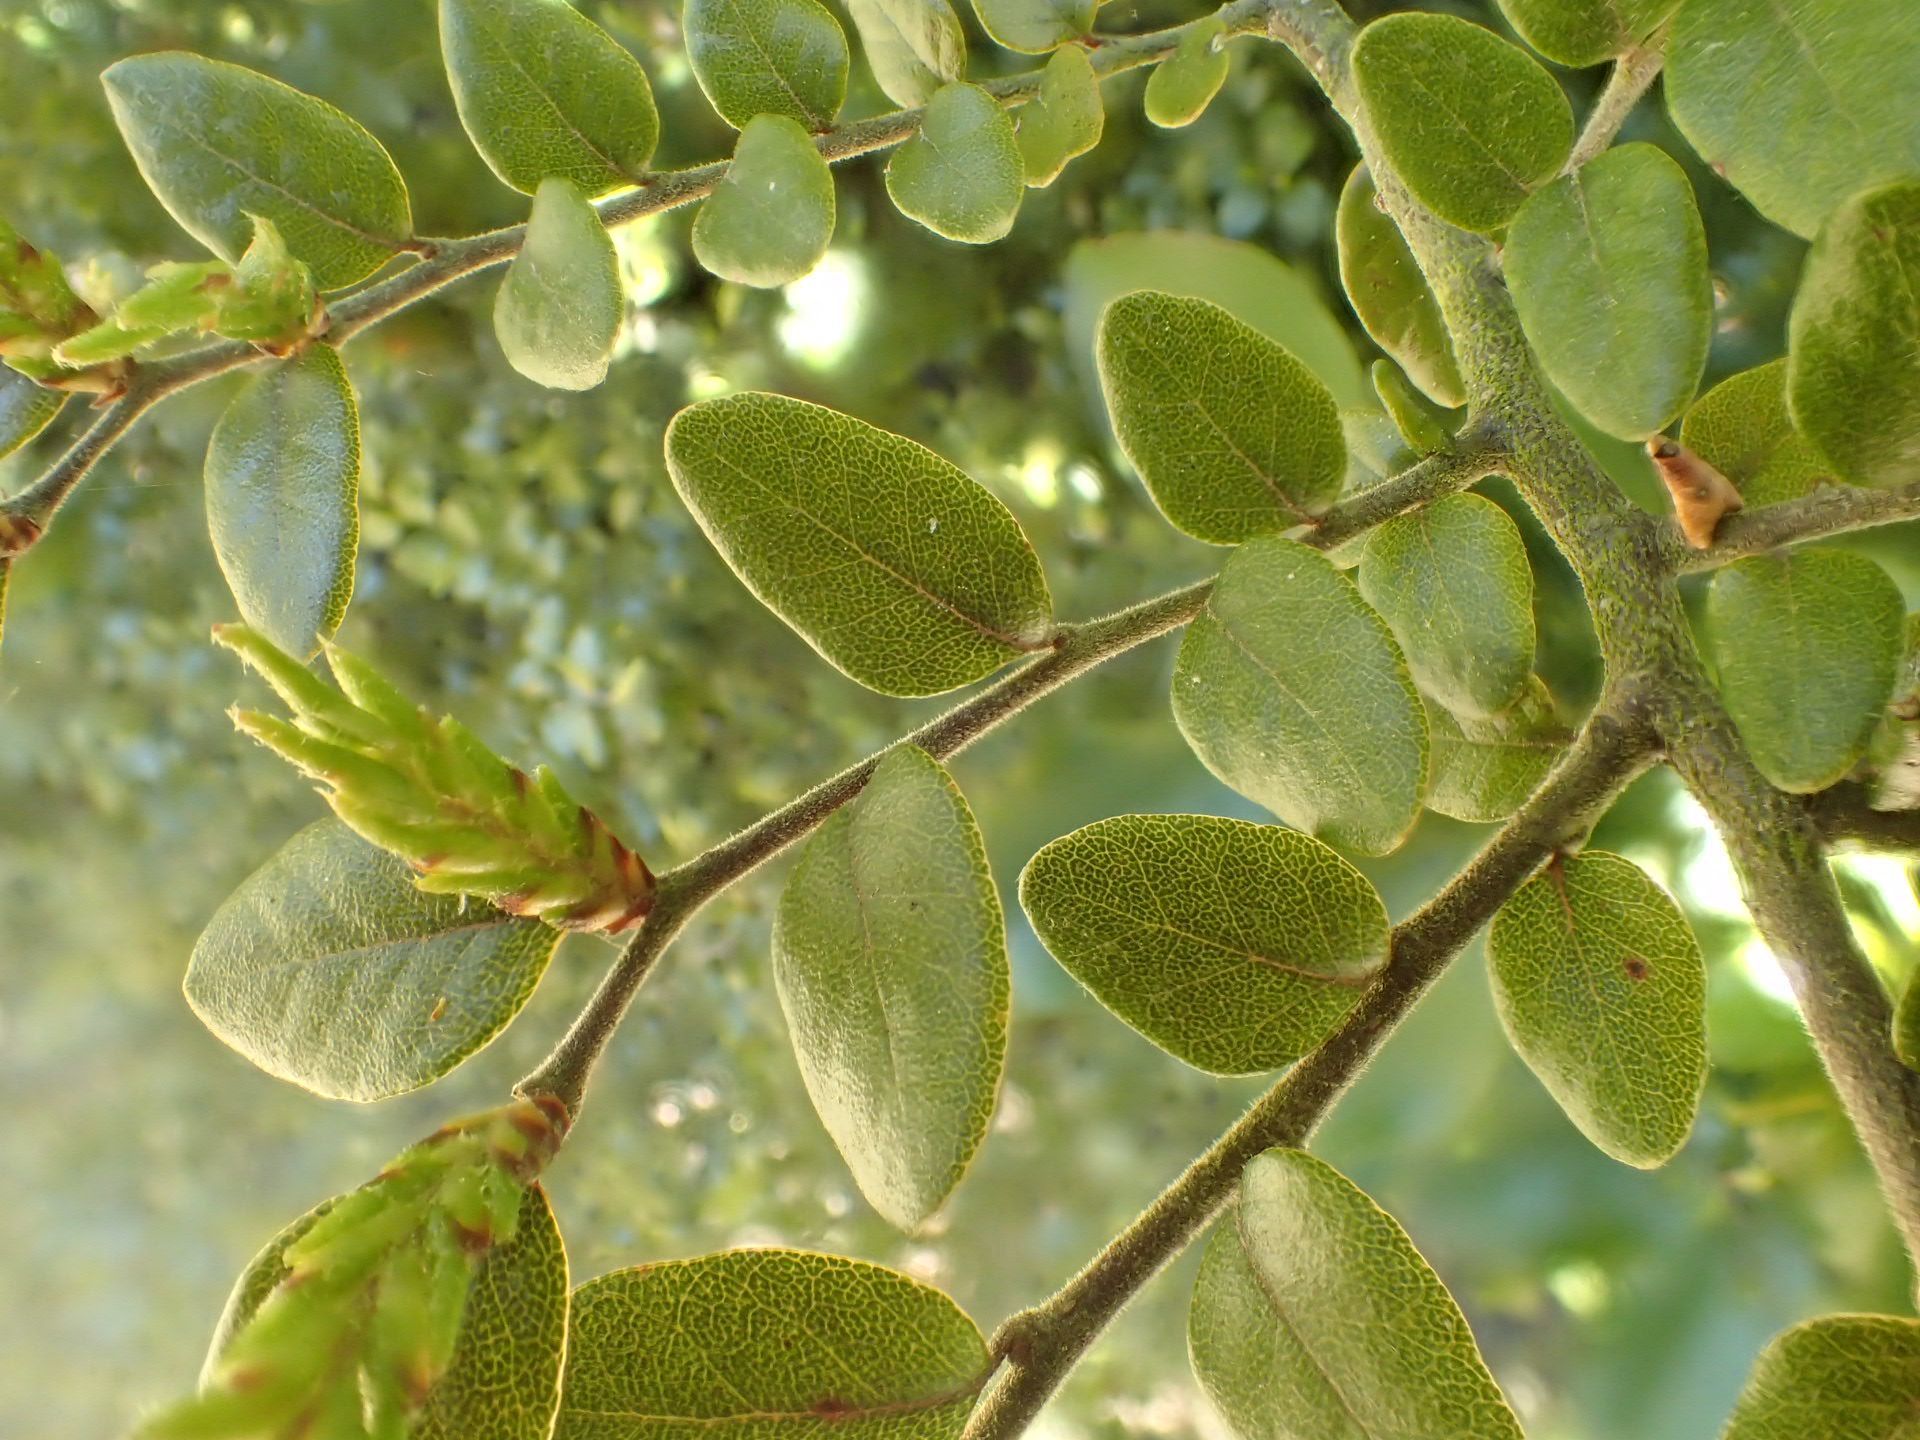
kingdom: Plantae
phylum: Tracheophyta
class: Magnoliopsida
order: Fagales
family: Nothofagaceae
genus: Nothofagus
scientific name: Nothofagus cliffortioides
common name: Mountain beech
